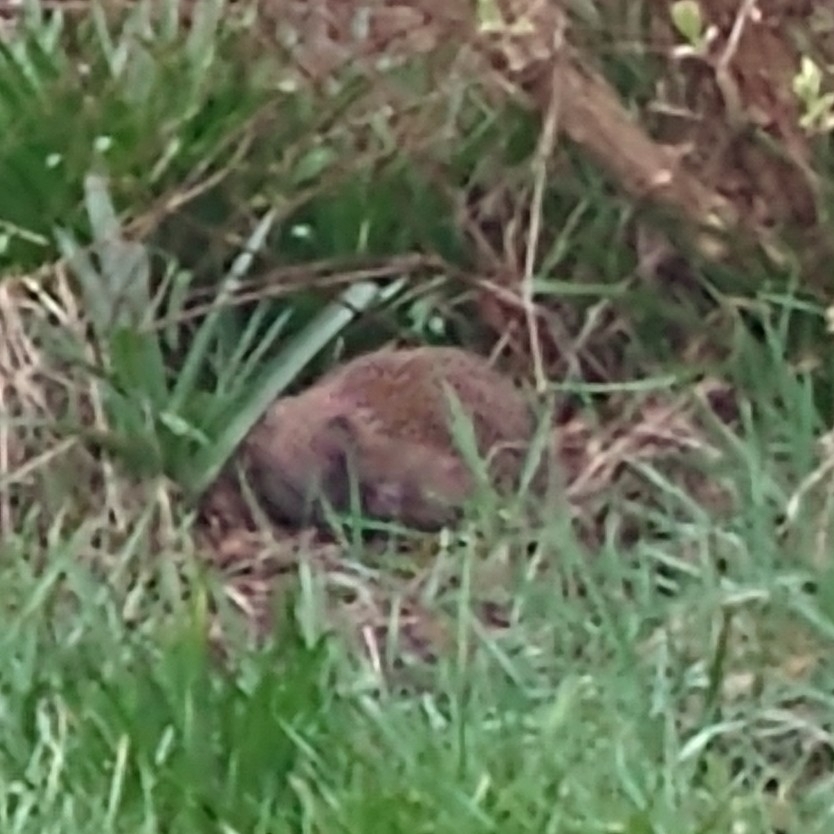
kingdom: Animalia
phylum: Chordata
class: Mammalia
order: Erinaceomorpha
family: Erinaceidae
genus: Erinaceus
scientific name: Erinaceus europaeus
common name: West european hedgehog
